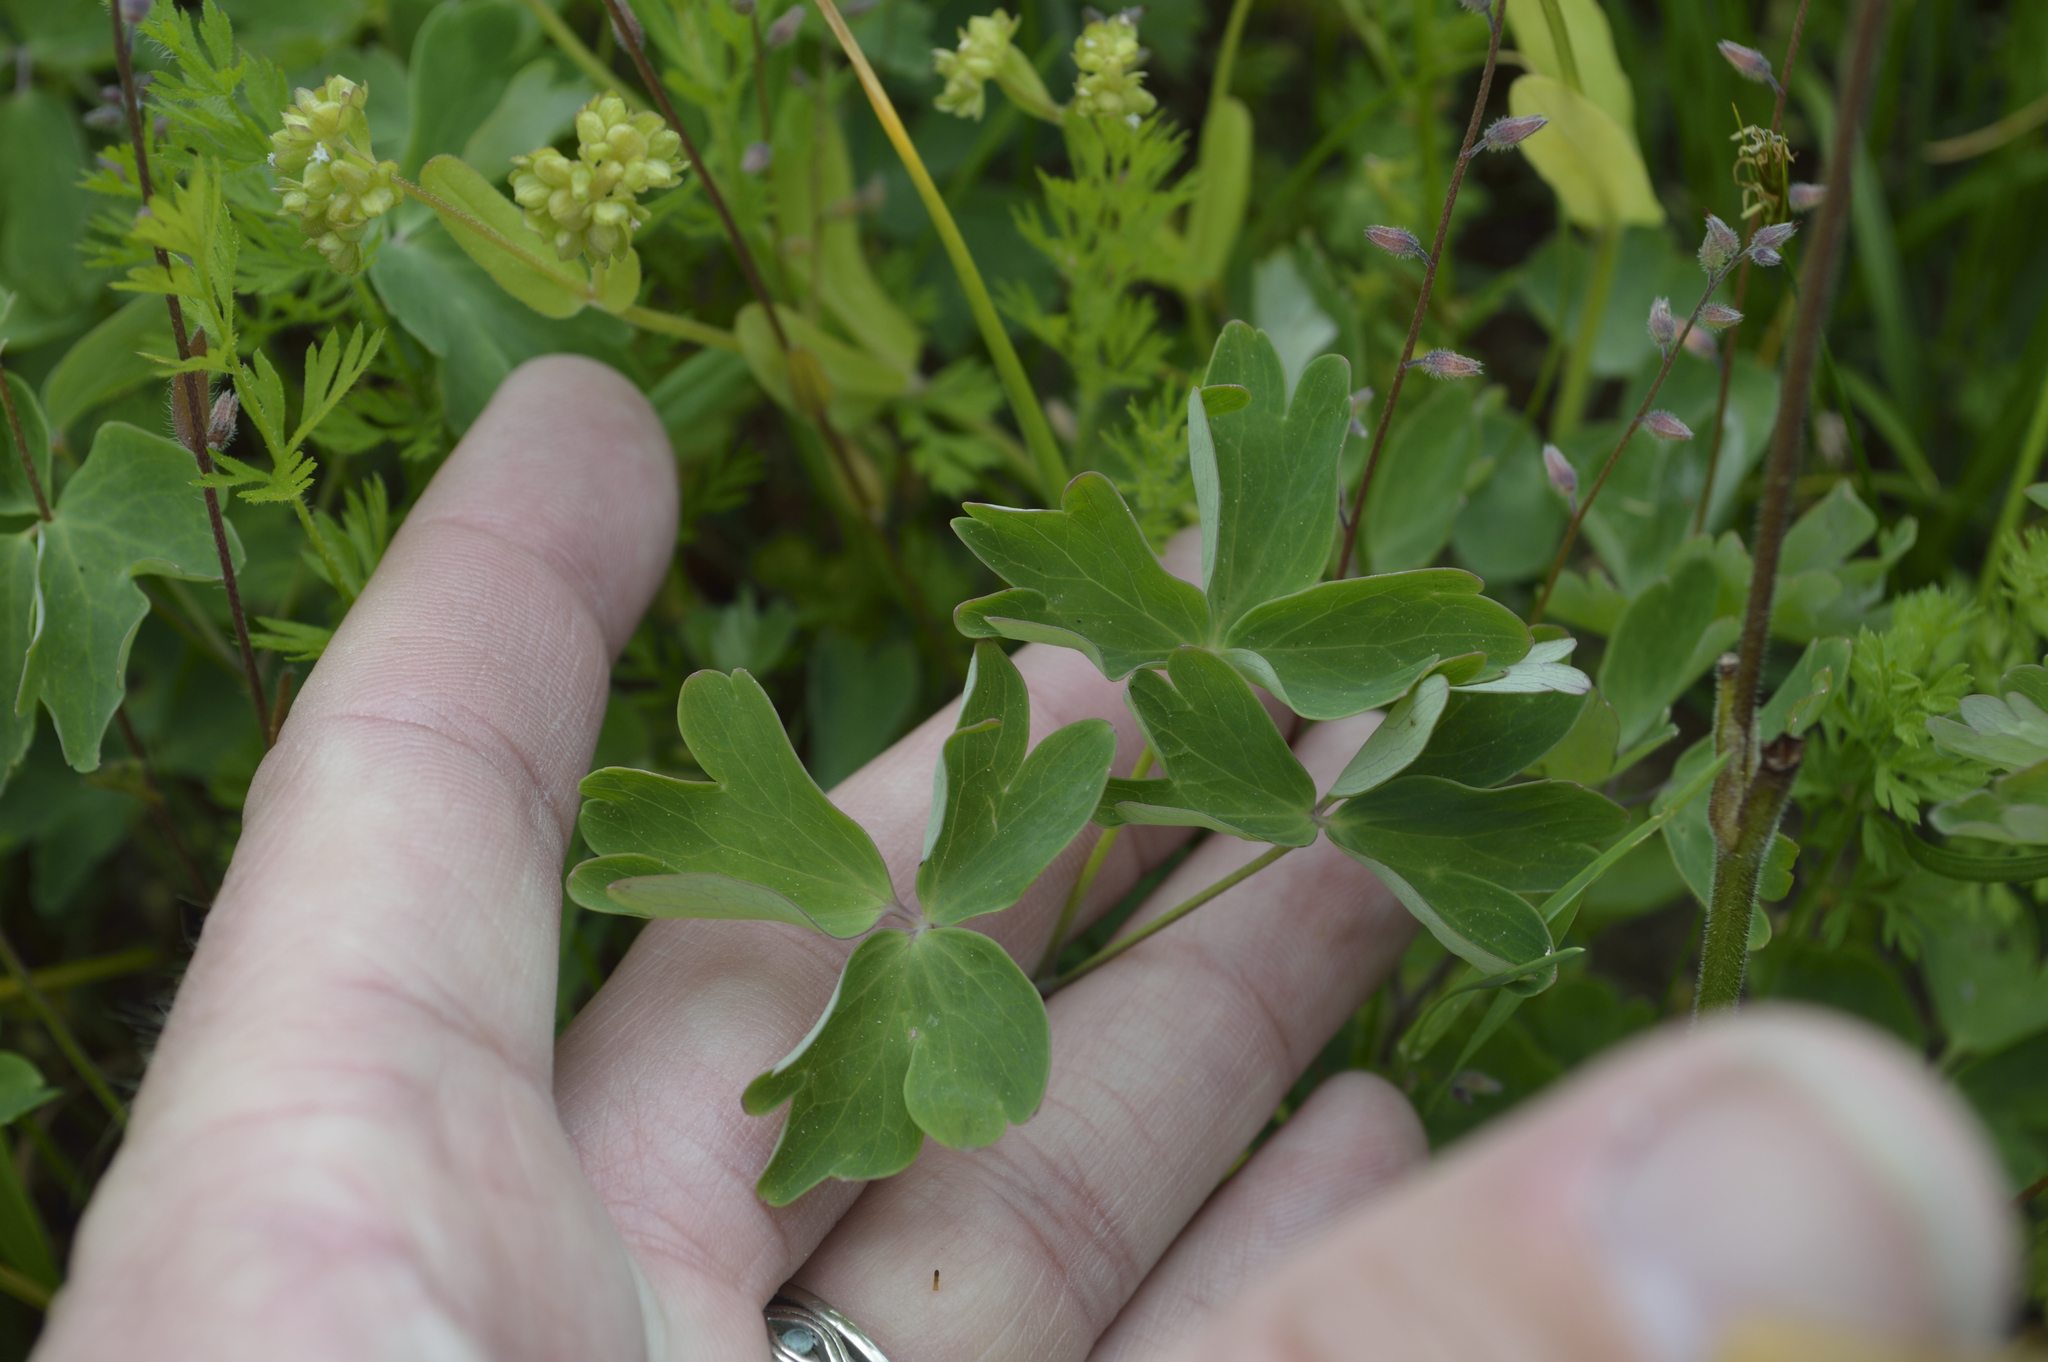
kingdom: Plantae
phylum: Tracheophyta
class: Magnoliopsida
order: Ranunculales
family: Ranunculaceae
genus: Aquilegia
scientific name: Aquilegia formosa
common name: Sitka columbine
